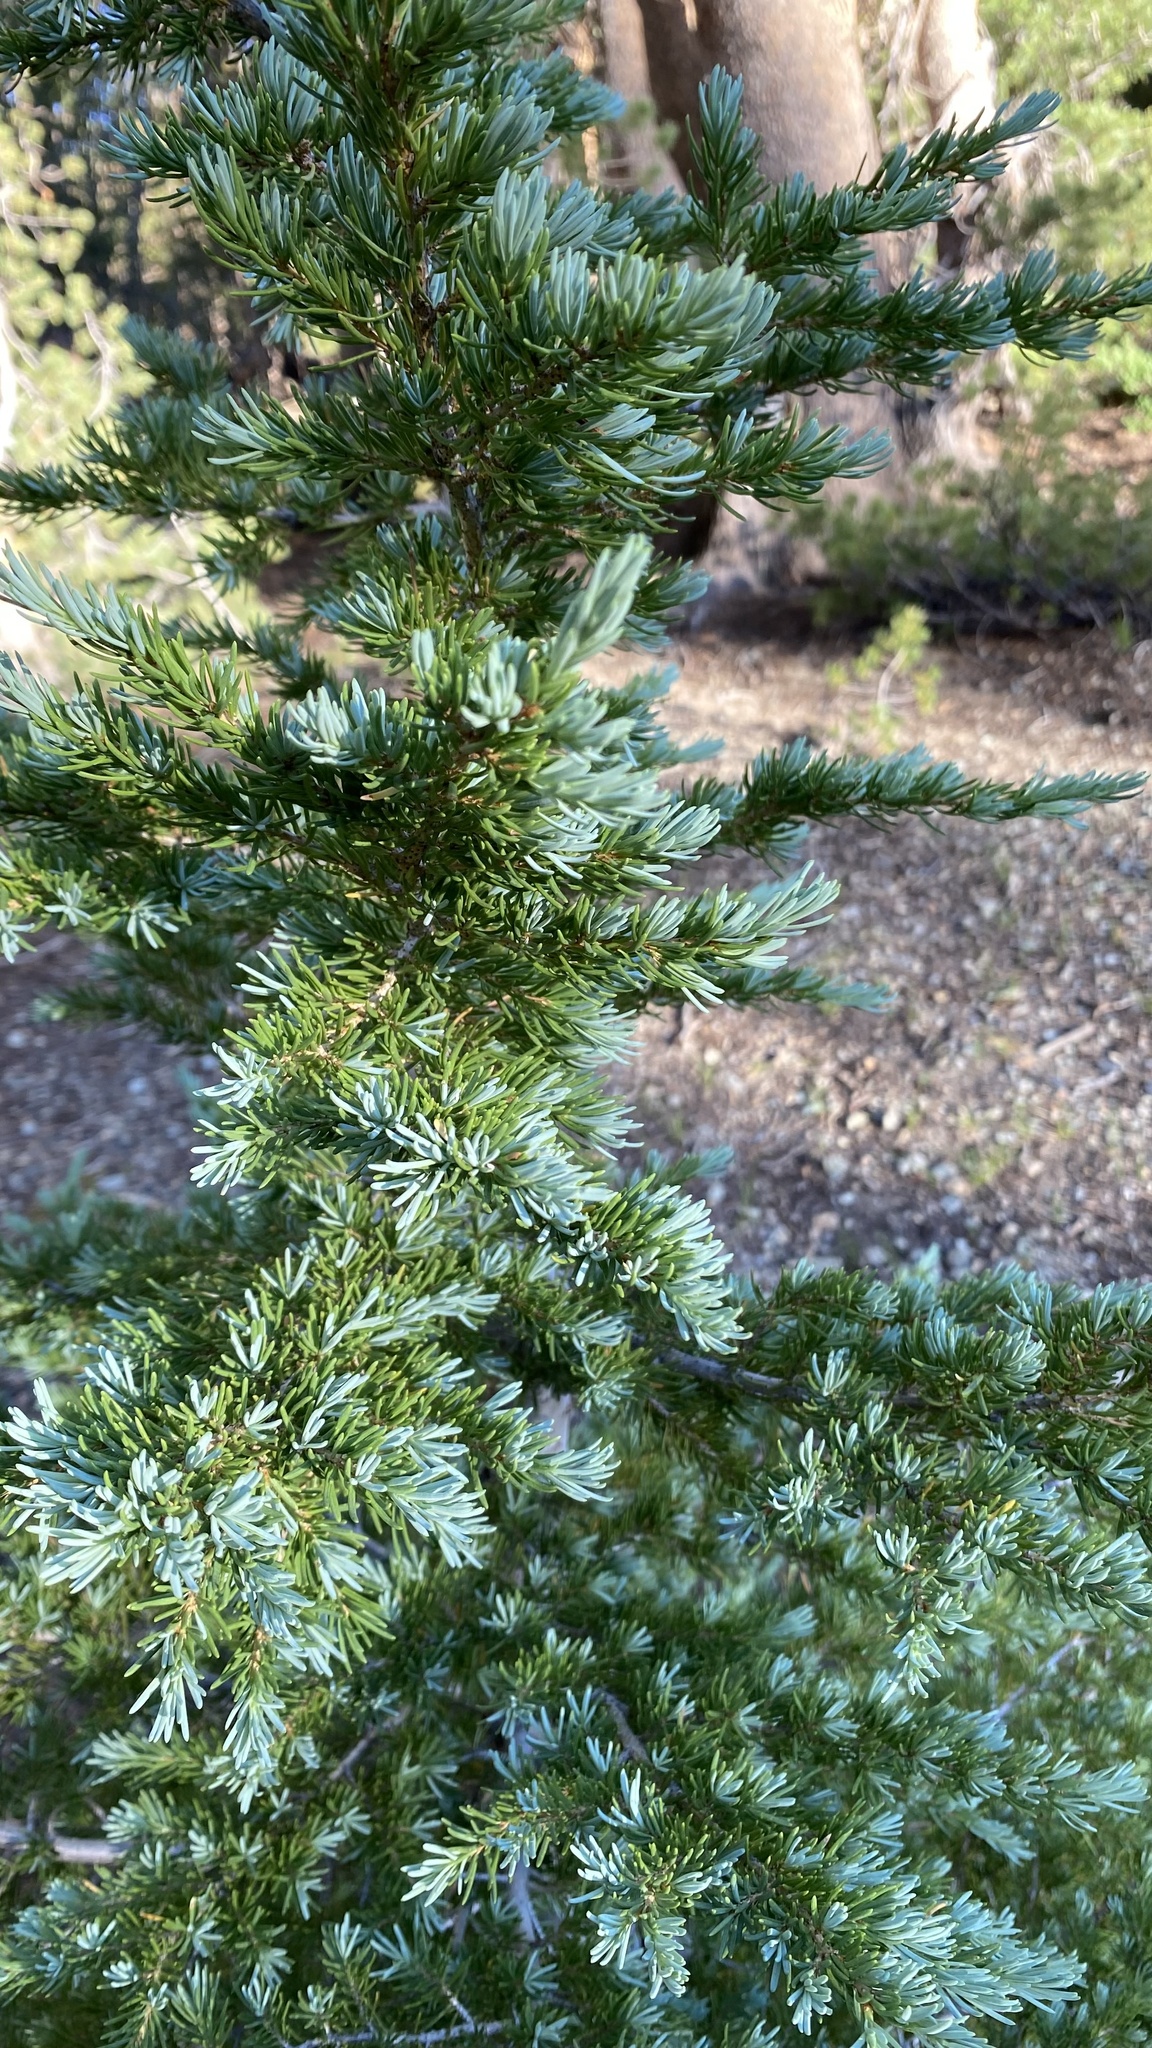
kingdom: Plantae
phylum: Tracheophyta
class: Pinopsida
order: Pinales
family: Pinaceae
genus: Tsuga
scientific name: Tsuga mertensiana
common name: Mountain hemlock
